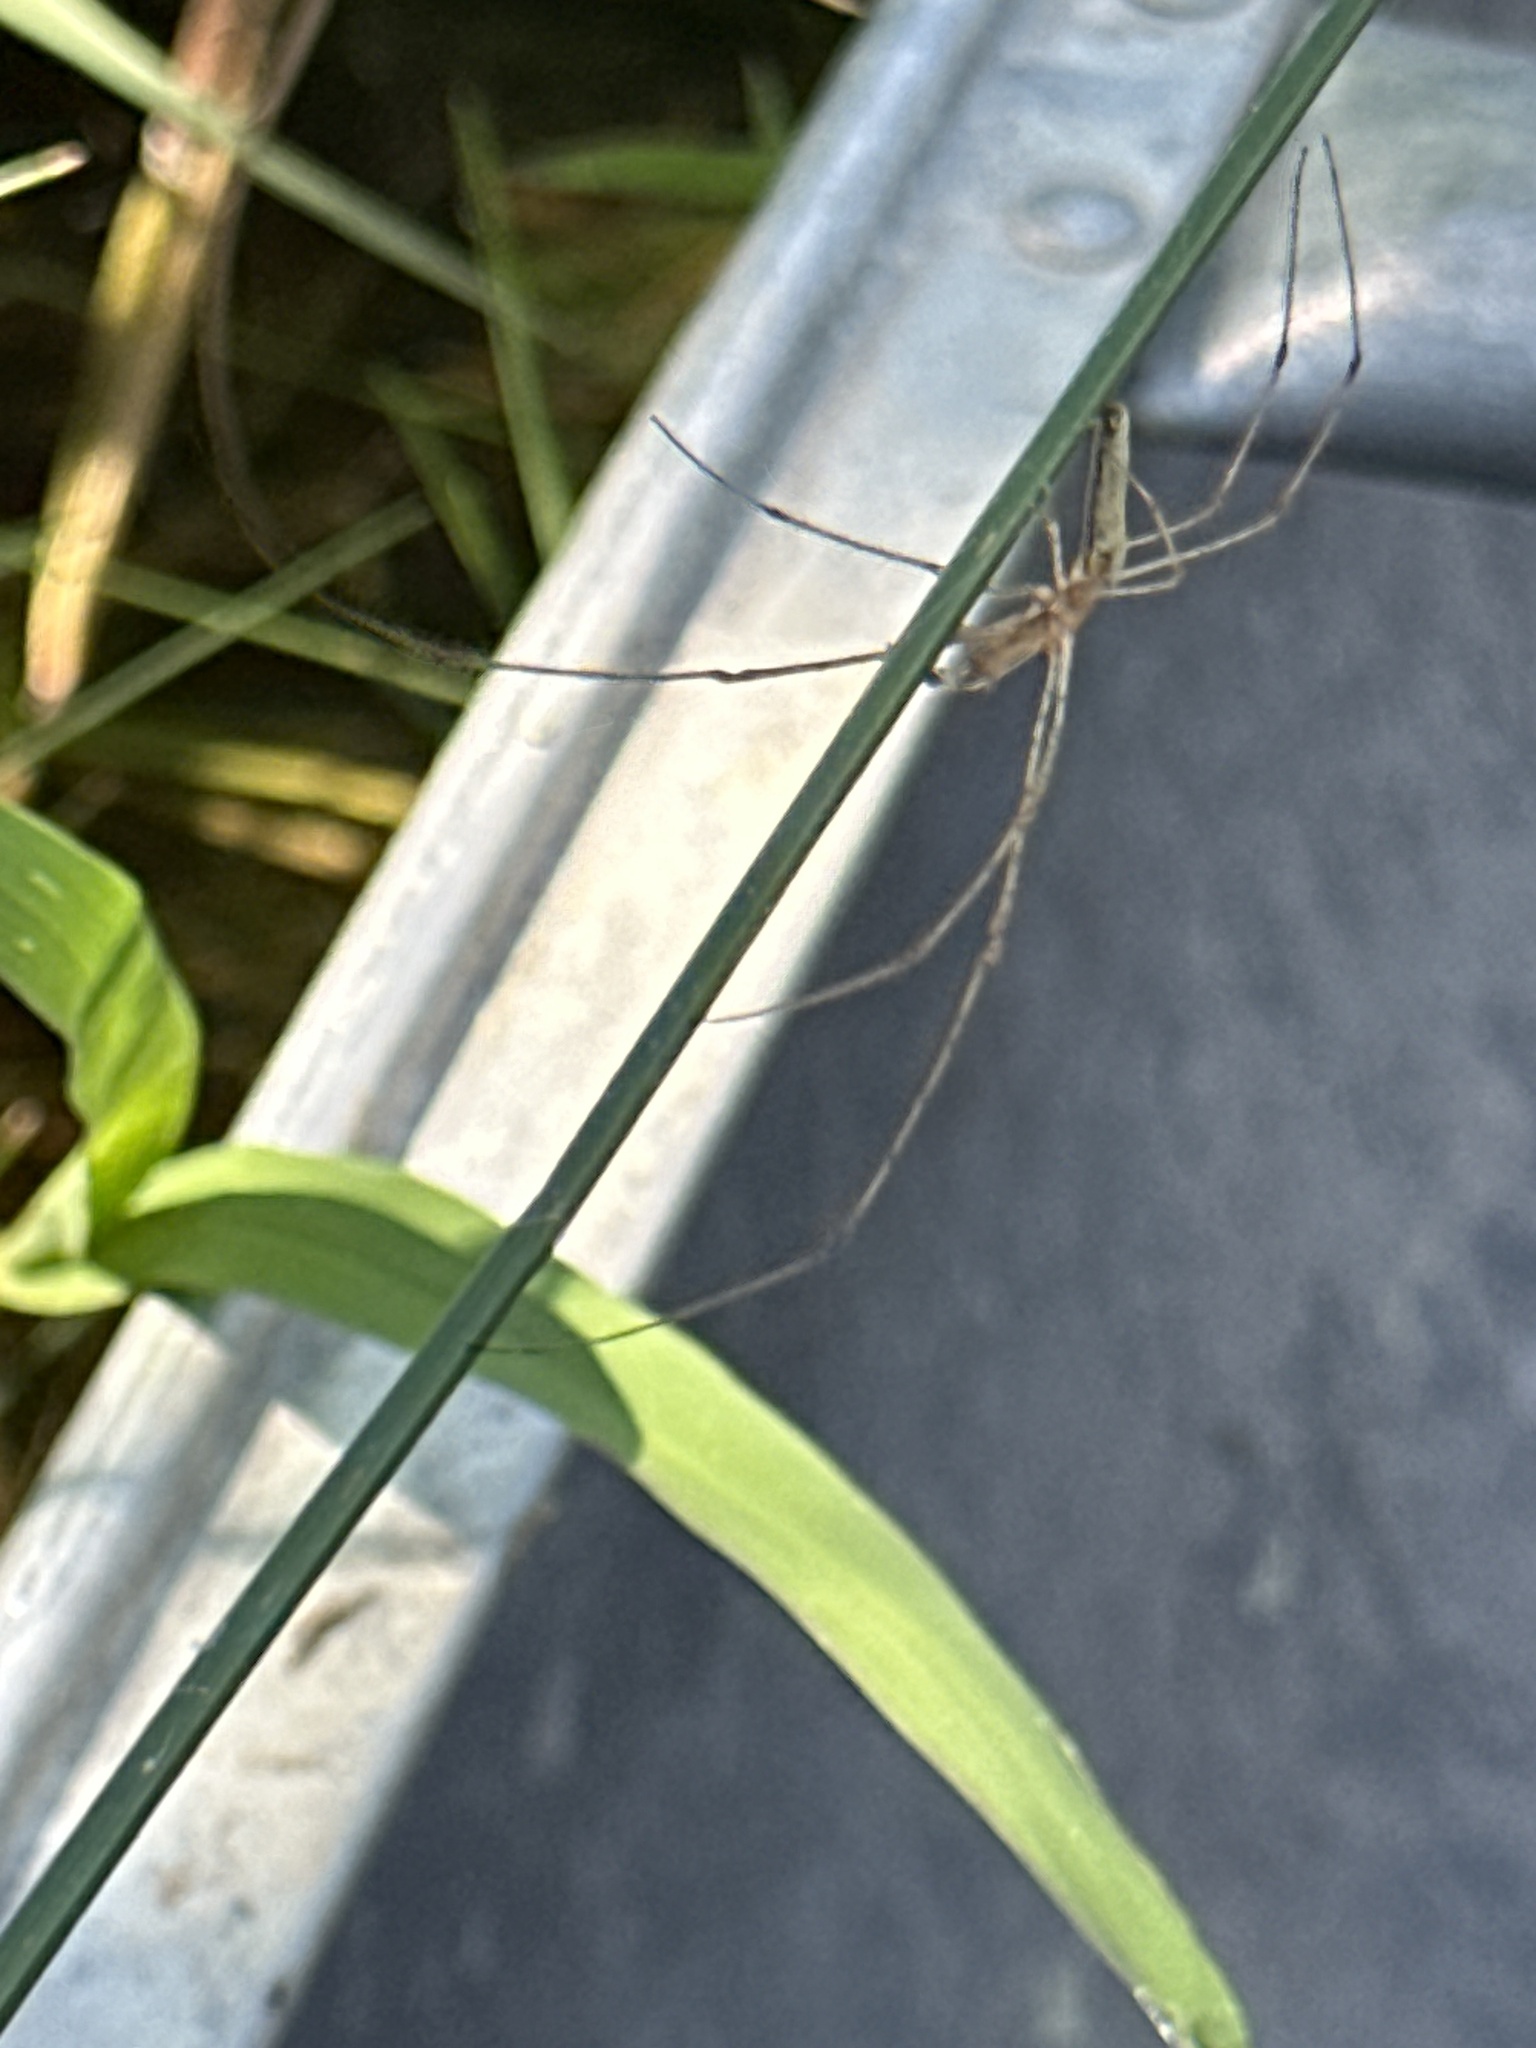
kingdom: Animalia
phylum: Arthropoda
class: Arachnida
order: Araneae
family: Tetragnathidae
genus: Tetragnatha
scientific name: Tetragnatha
